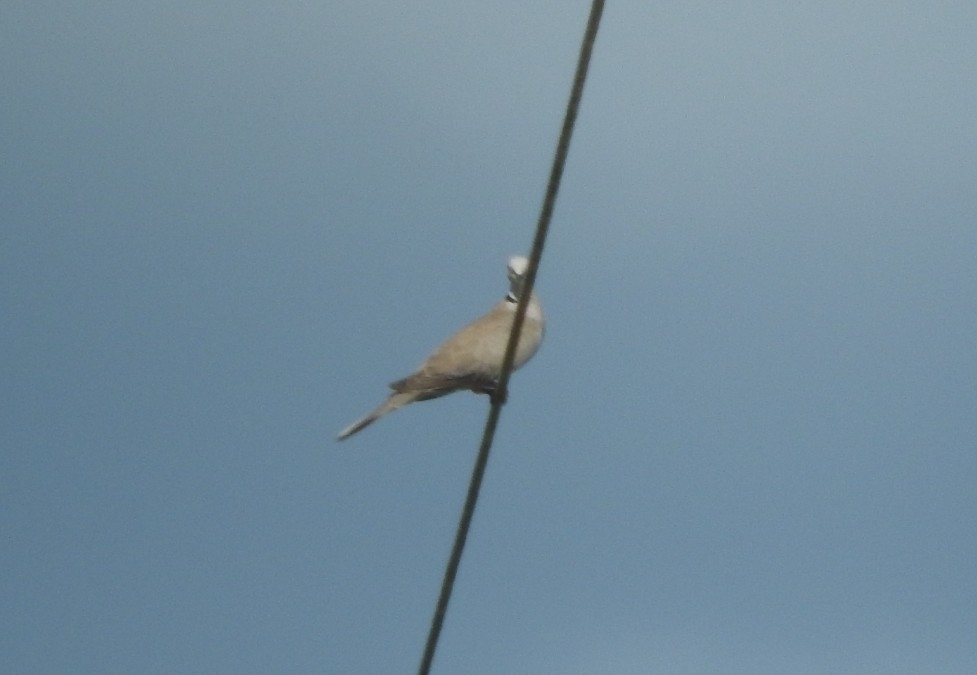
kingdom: Animalia
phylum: Chordata
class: Aves
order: Columbiformes
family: Columbidae
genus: Streptopelia
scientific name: Streptopelia decaocto
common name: Eurasian collared dove
